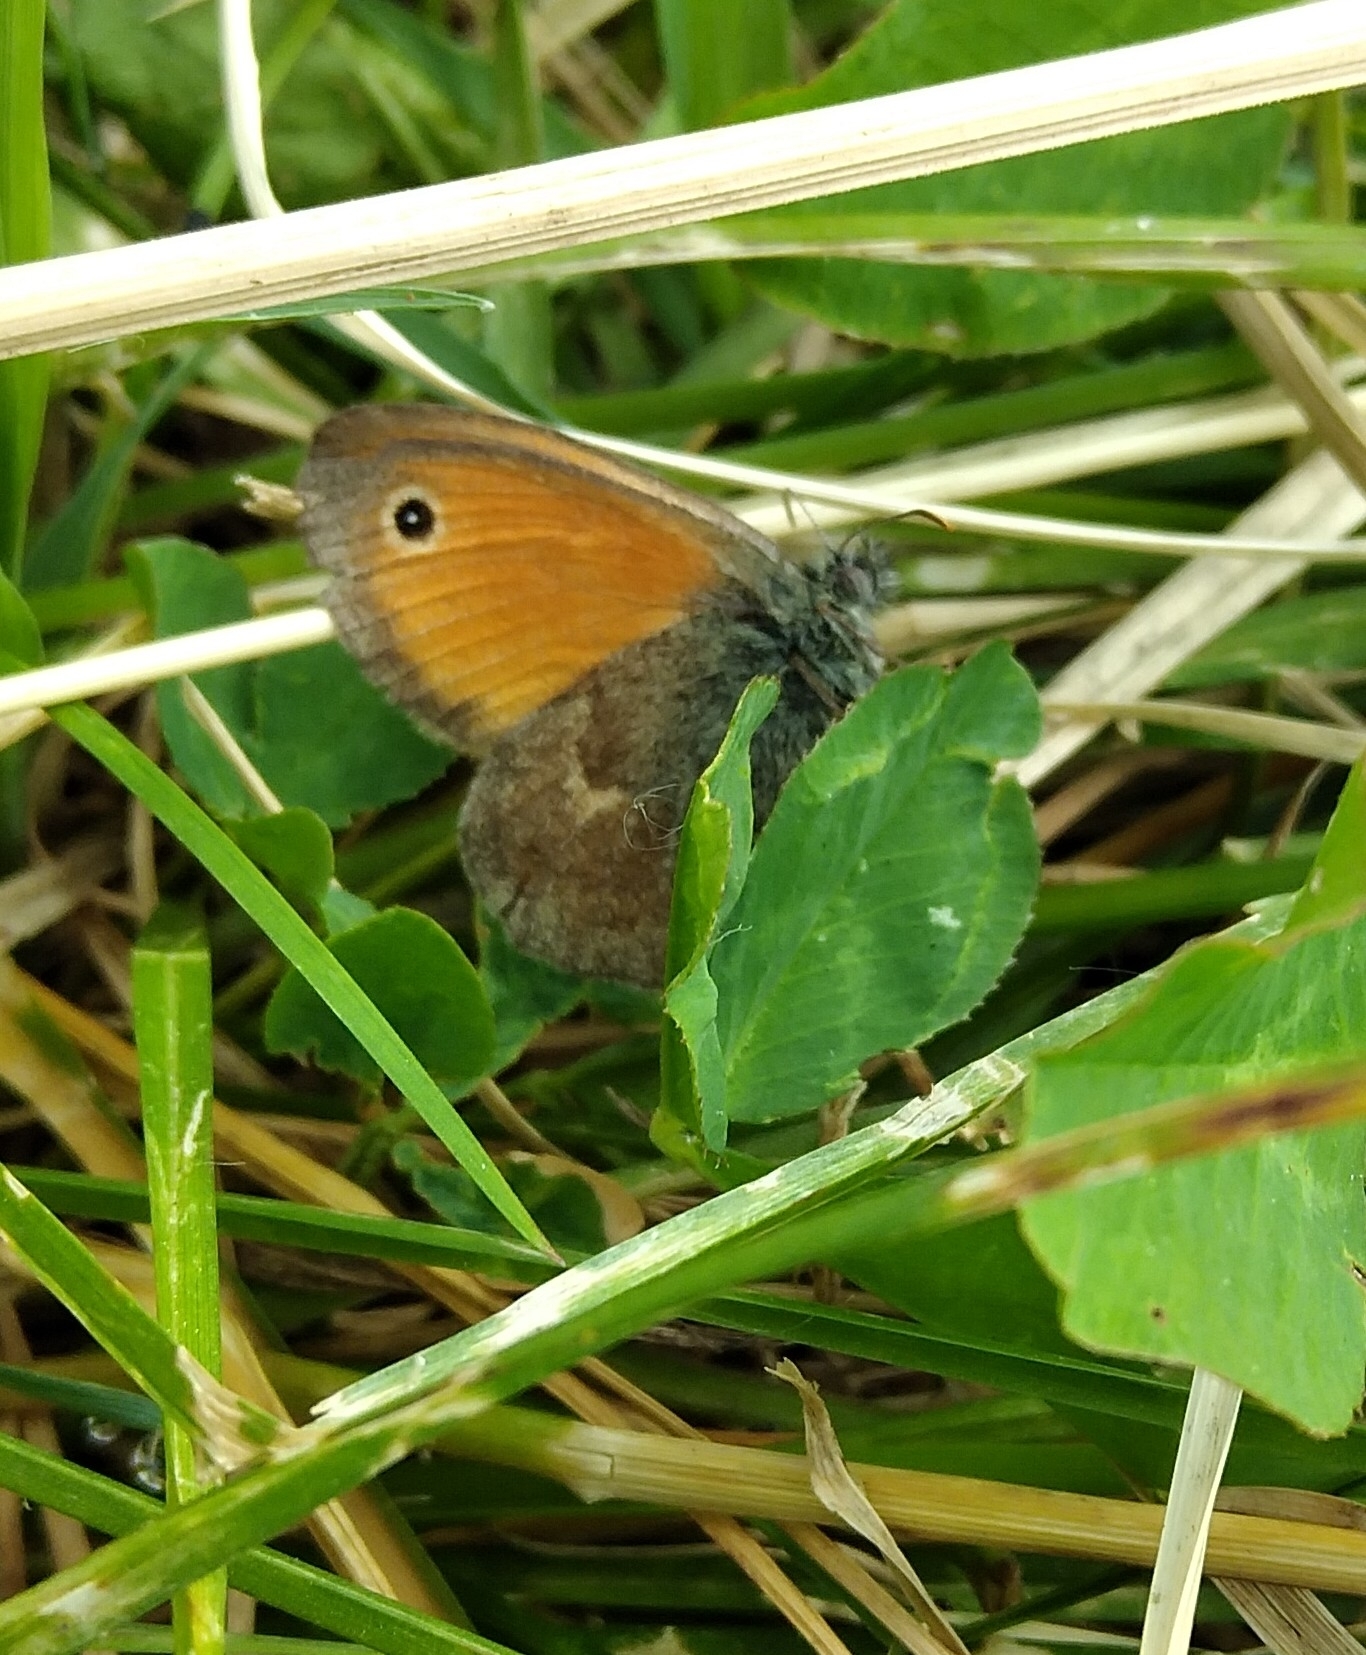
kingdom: Animalia
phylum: Arthropoda
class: Insecta
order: Lepidoptera
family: Nymphalidae
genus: Coenonympha
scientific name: Coenonympha pamphilus
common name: Small heath
